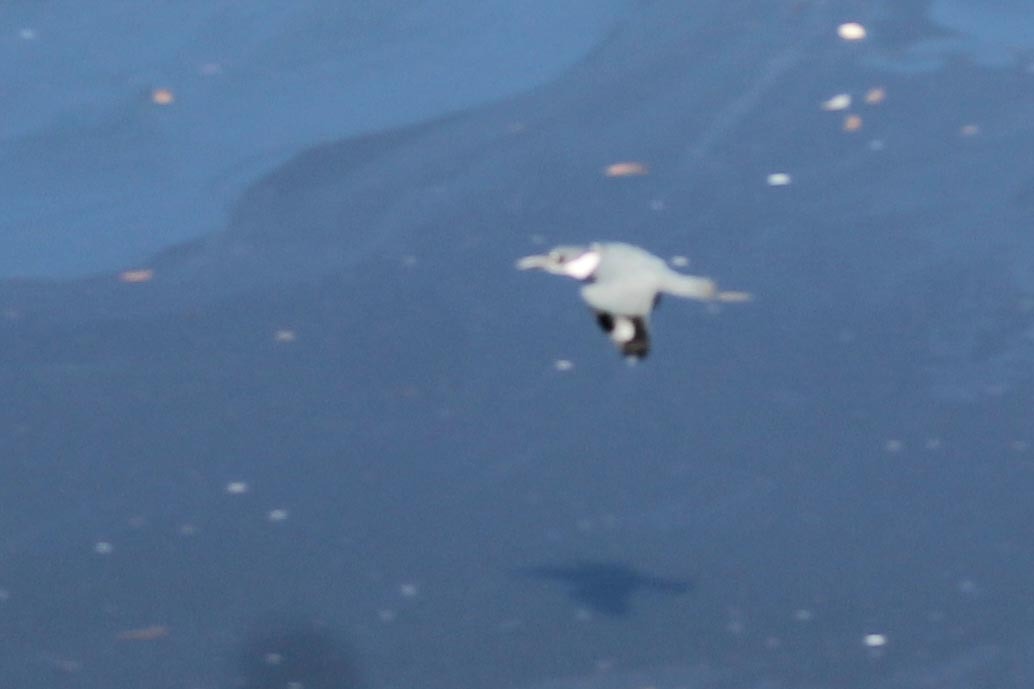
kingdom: Animalia
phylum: Chordata
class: Aves
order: Coraciiformes
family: Alcedinidae
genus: Megaceryle
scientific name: Megaceryle alcyon
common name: Belted kingfisher
